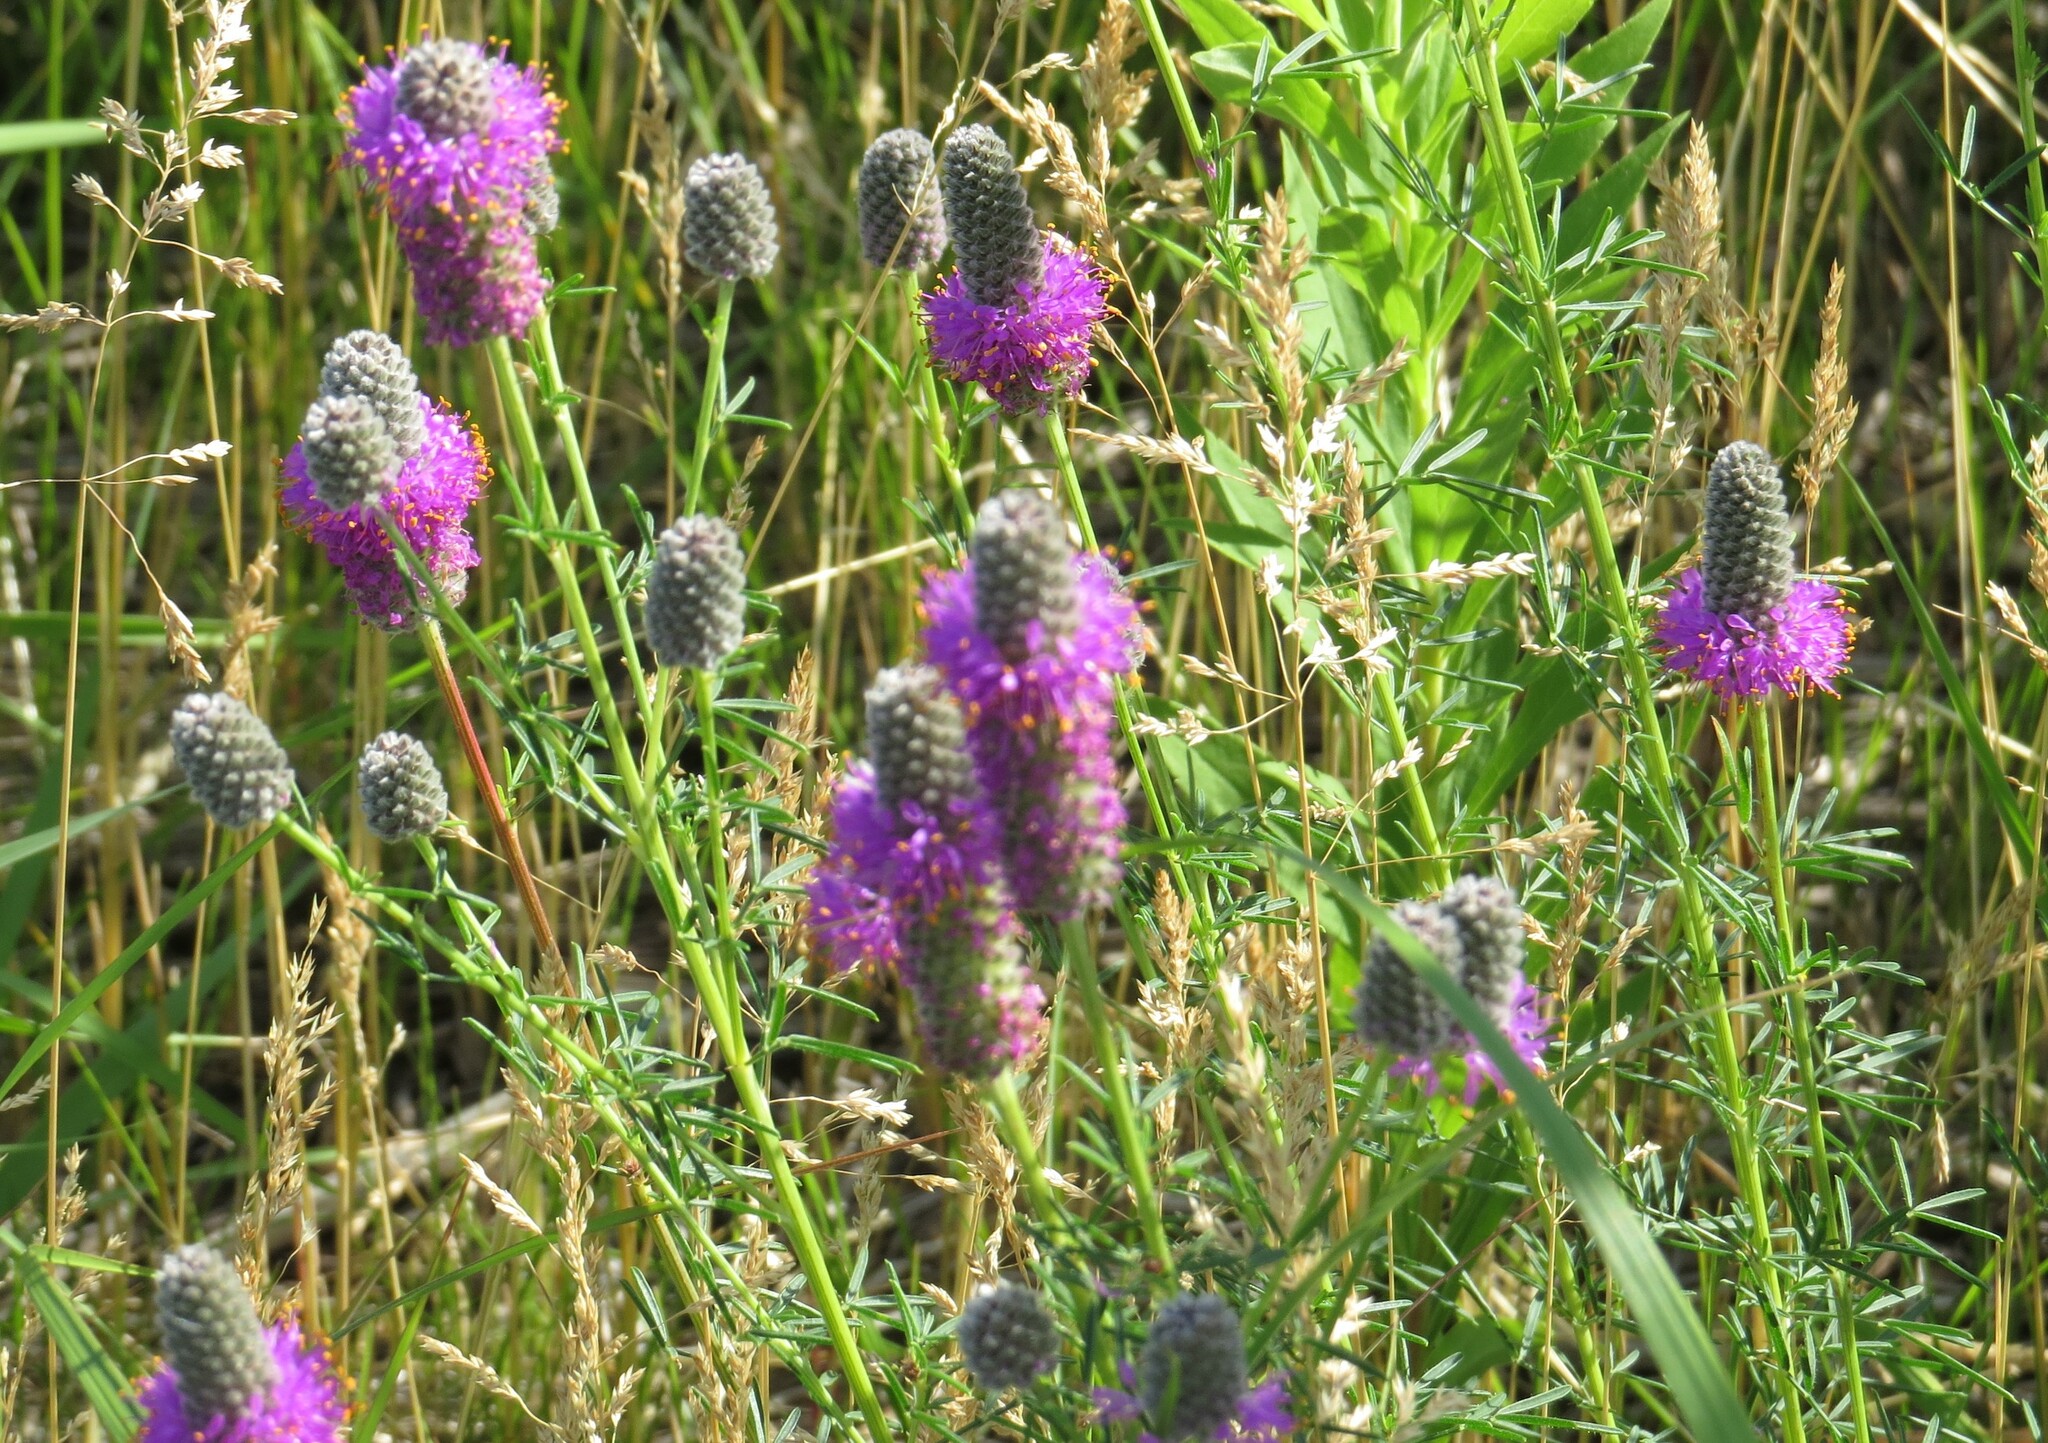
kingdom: Plantae
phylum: Tracheophyta
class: Magnoliopsida
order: Fabales
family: Fabaceae
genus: Dalea
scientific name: Dalea purpurea
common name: Purple prairie-clover
